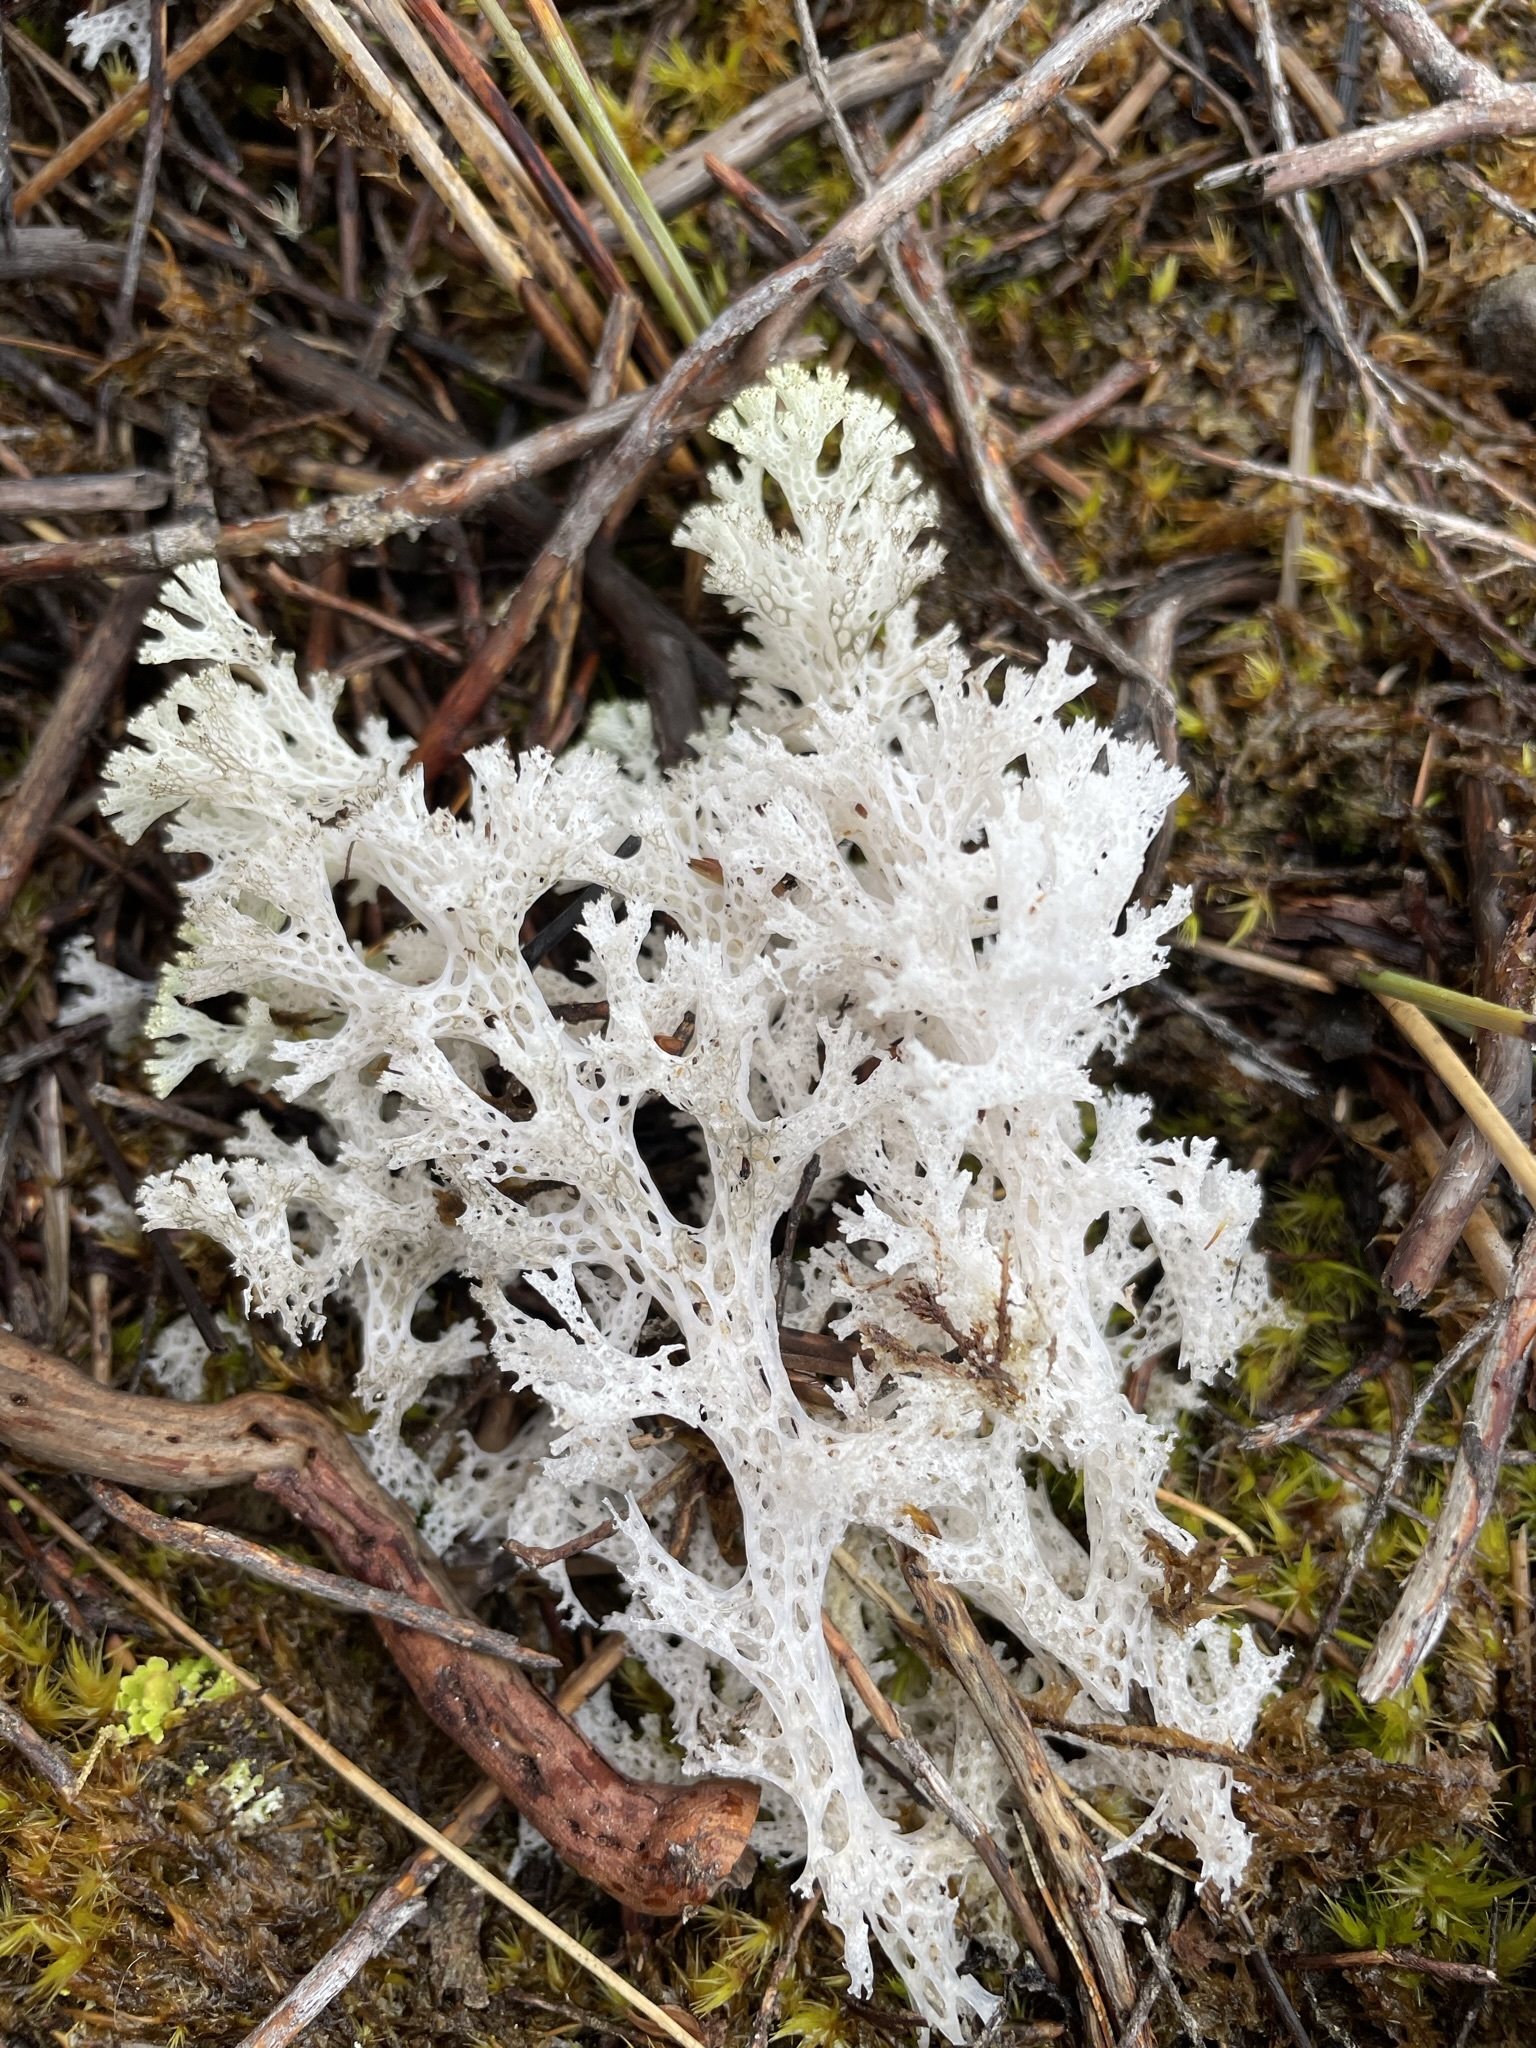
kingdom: Fungi
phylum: Ascomycota
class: Lecanoromycetes
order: Lecanorales
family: Cladoniaceae
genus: Pulchrocladia
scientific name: Pulchrocladia retipora
